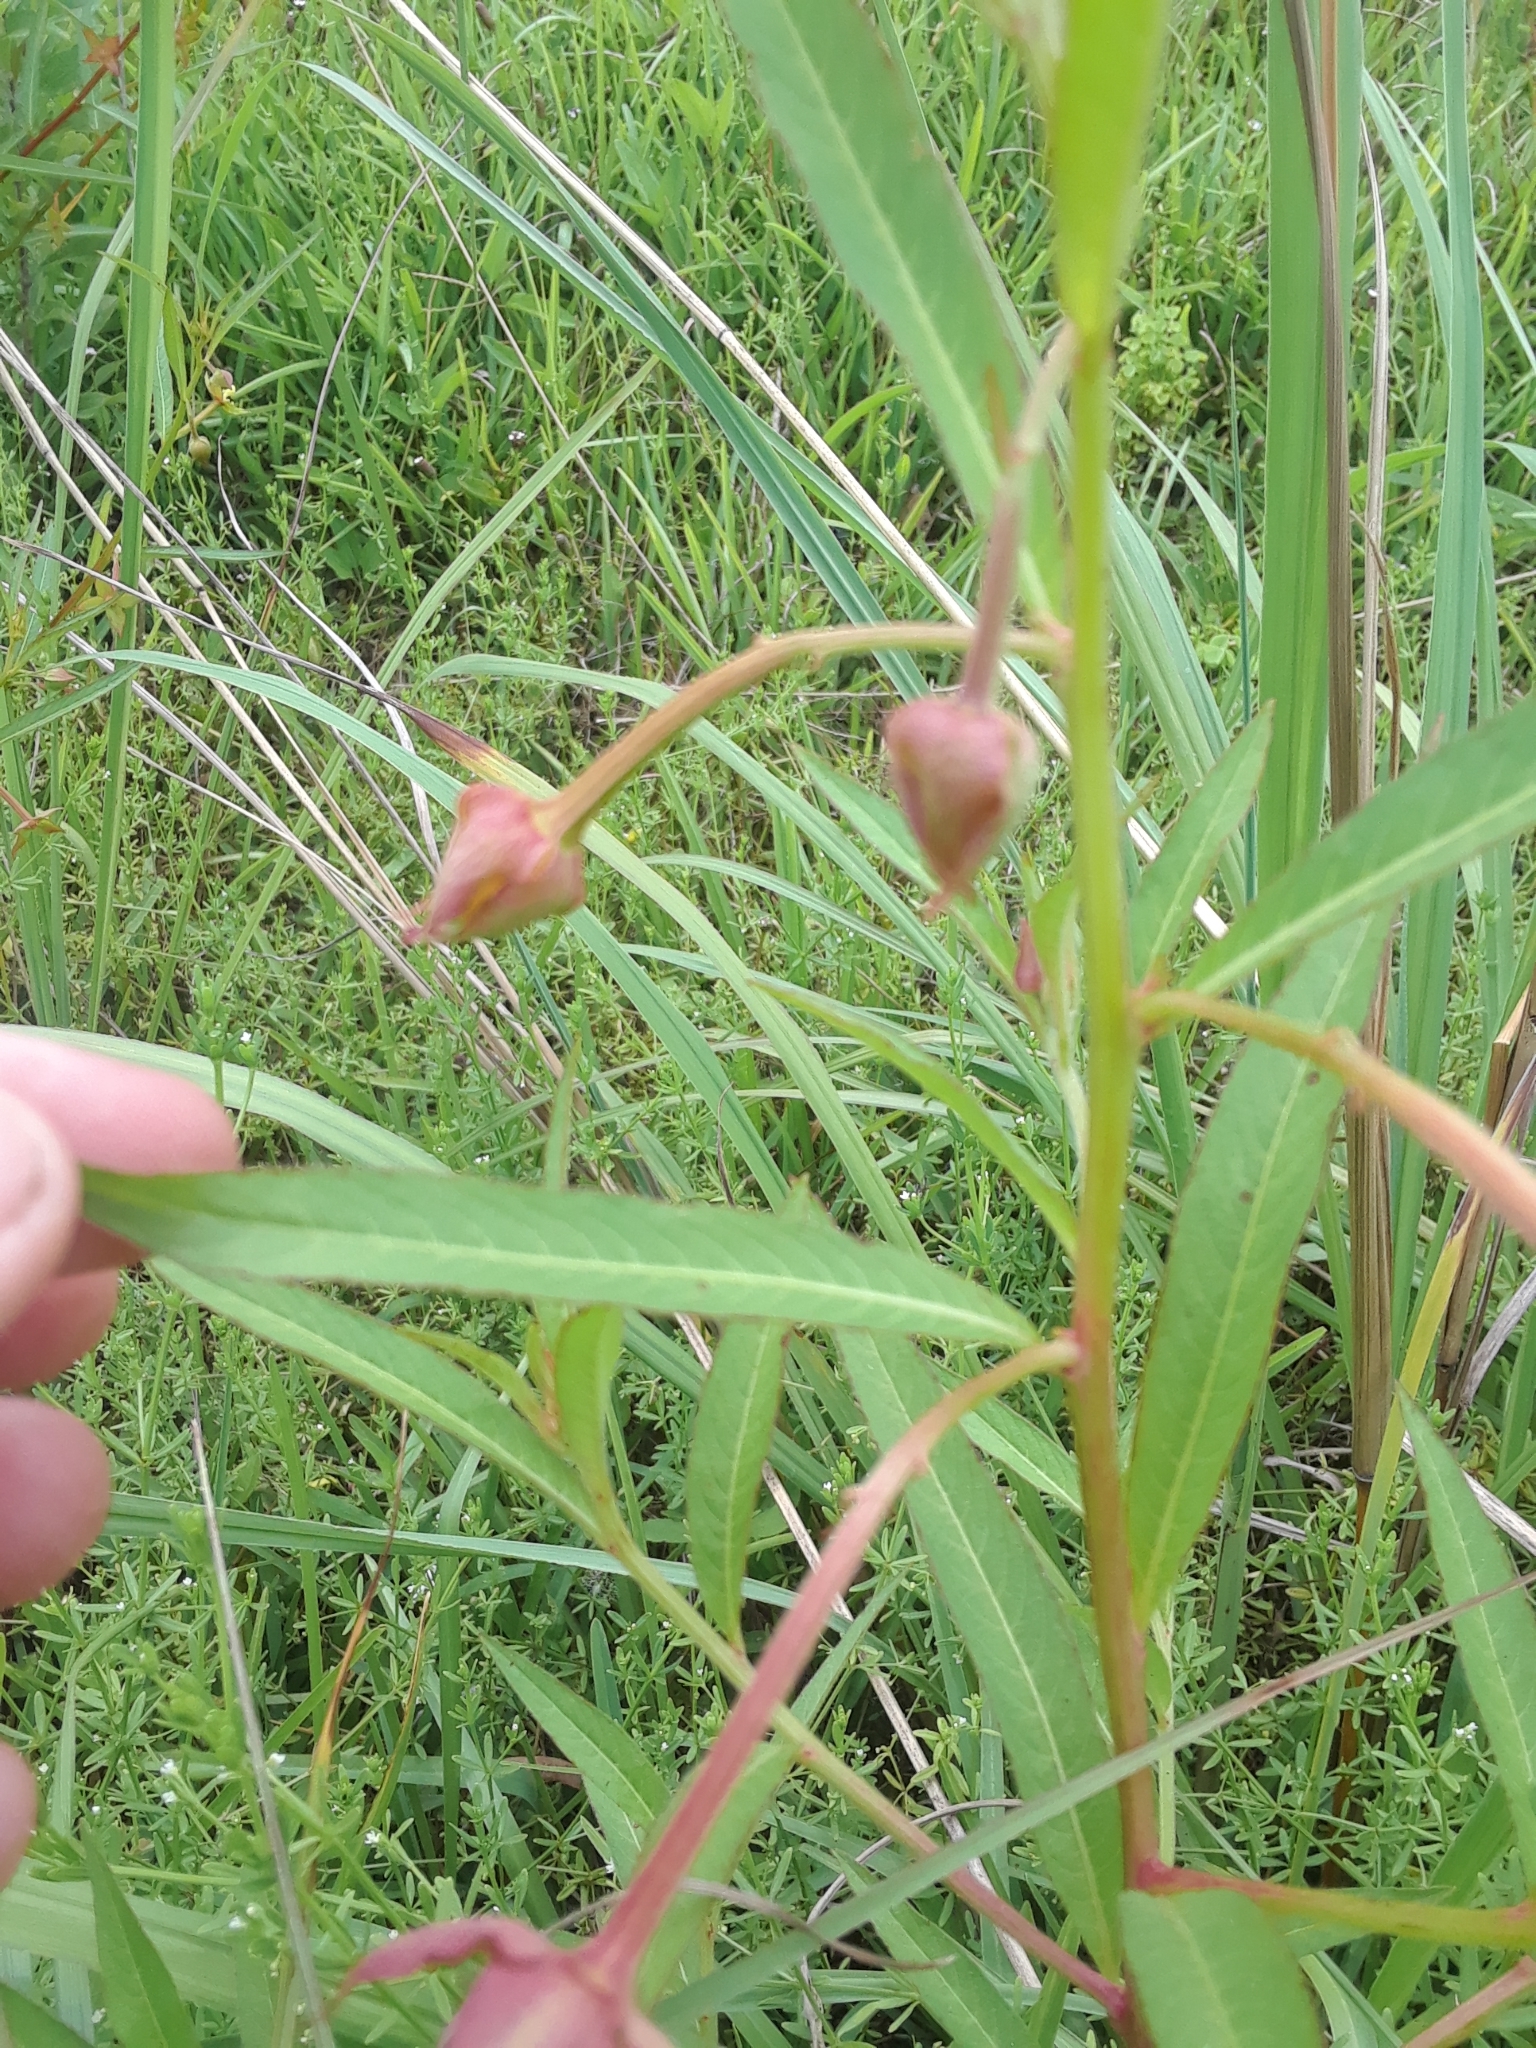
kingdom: Plantae
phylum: Tracheophyta
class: Magnoliopsida
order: Myrtales
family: Onagraceae
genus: Ludwigia
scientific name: Ludwigia octovalvis
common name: Water-primrose
